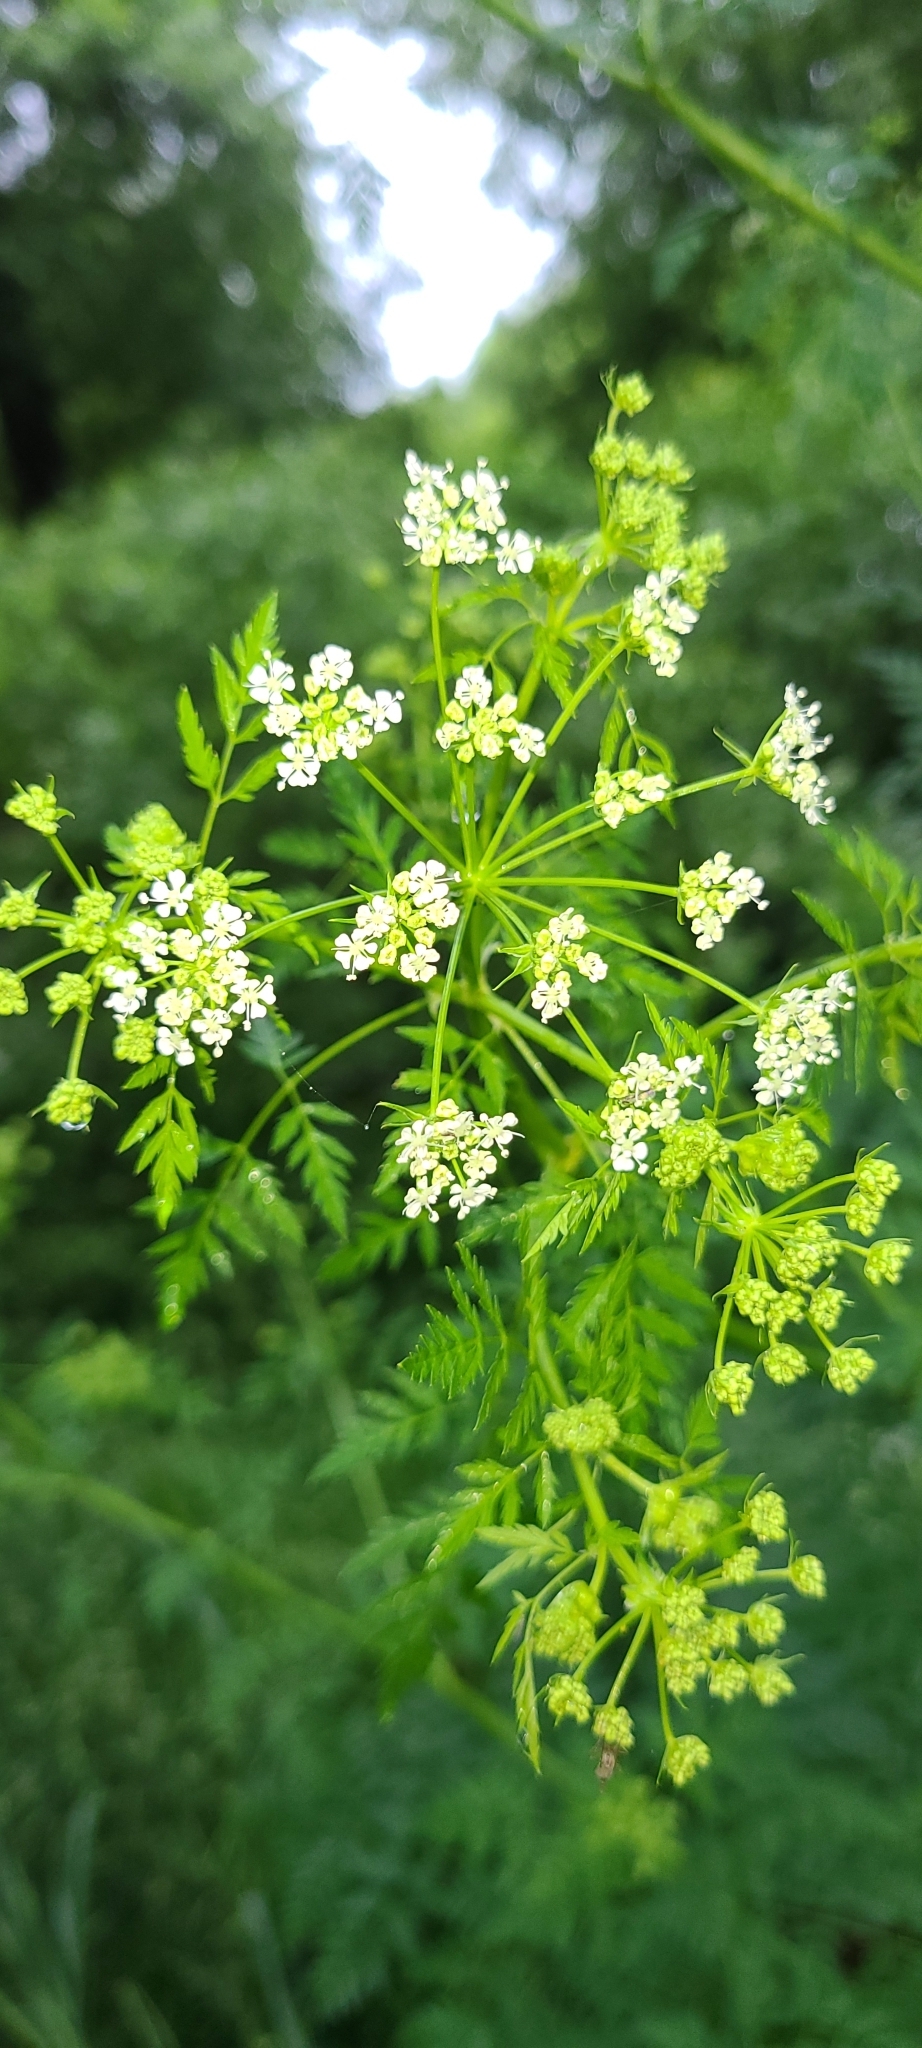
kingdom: Plantae
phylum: Tracheophyta
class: Magnoliopsida
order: Apiales
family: Apiaceae
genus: Conium
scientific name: Conium maculatum
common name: Hemlock
